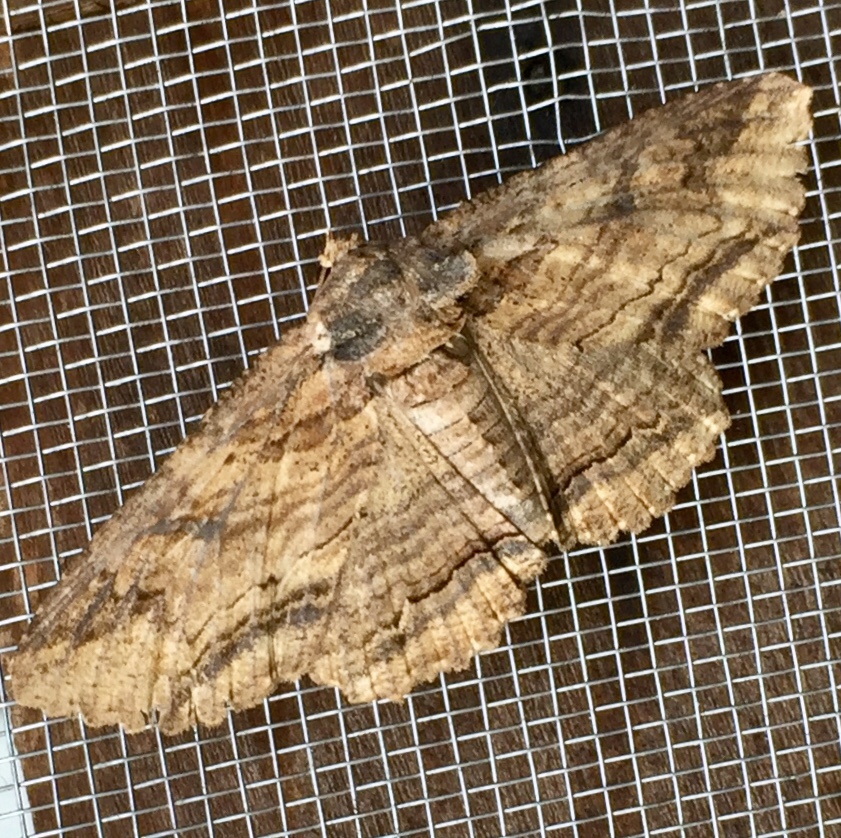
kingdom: Animalia
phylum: Arthropoda
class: Insecta
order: Lepidoptera
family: Erebidae
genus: Zale
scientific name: Zale lunata
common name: Lunate zale moth
